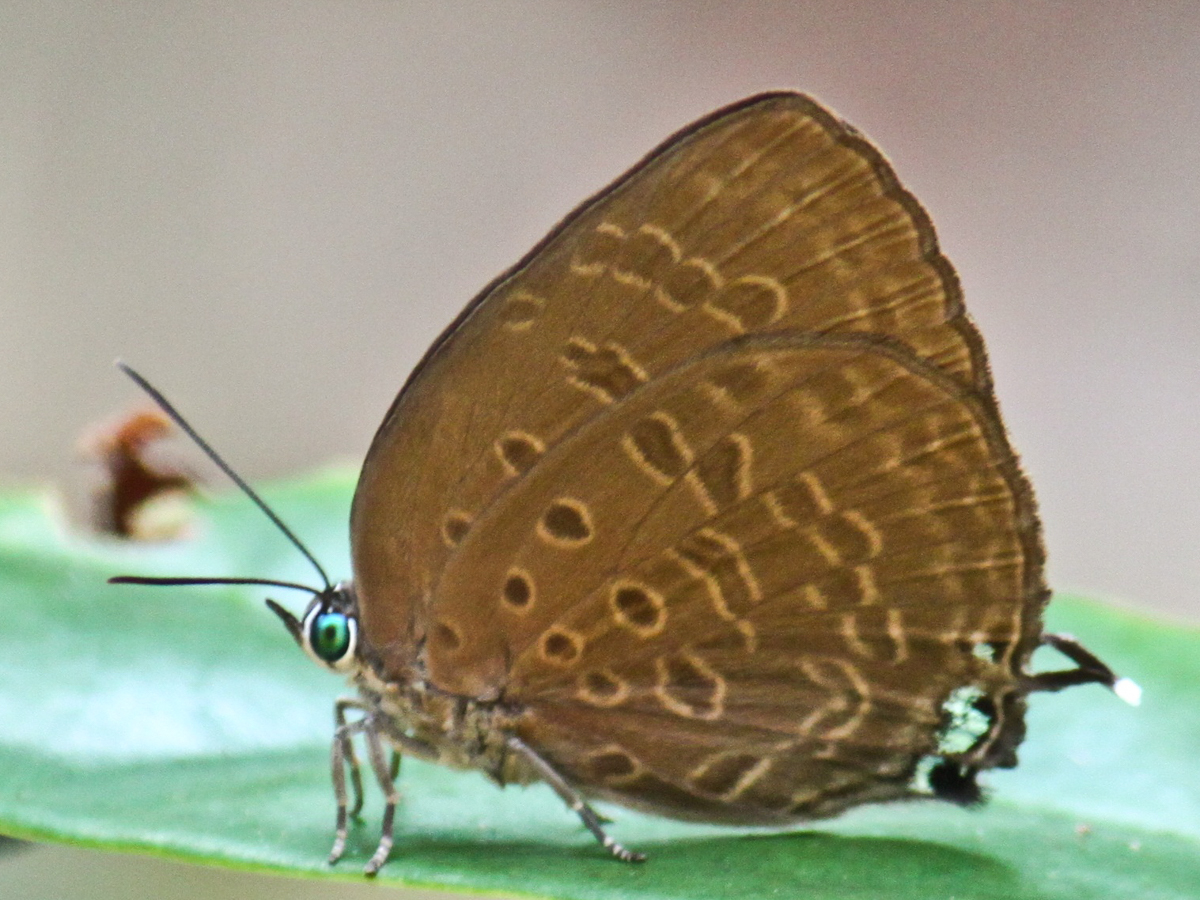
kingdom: Animalia
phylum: Arthropoda
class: Insecta
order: Lepidoptera
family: Lycaenidae
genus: Arhopala
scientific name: Arhopala atosia
